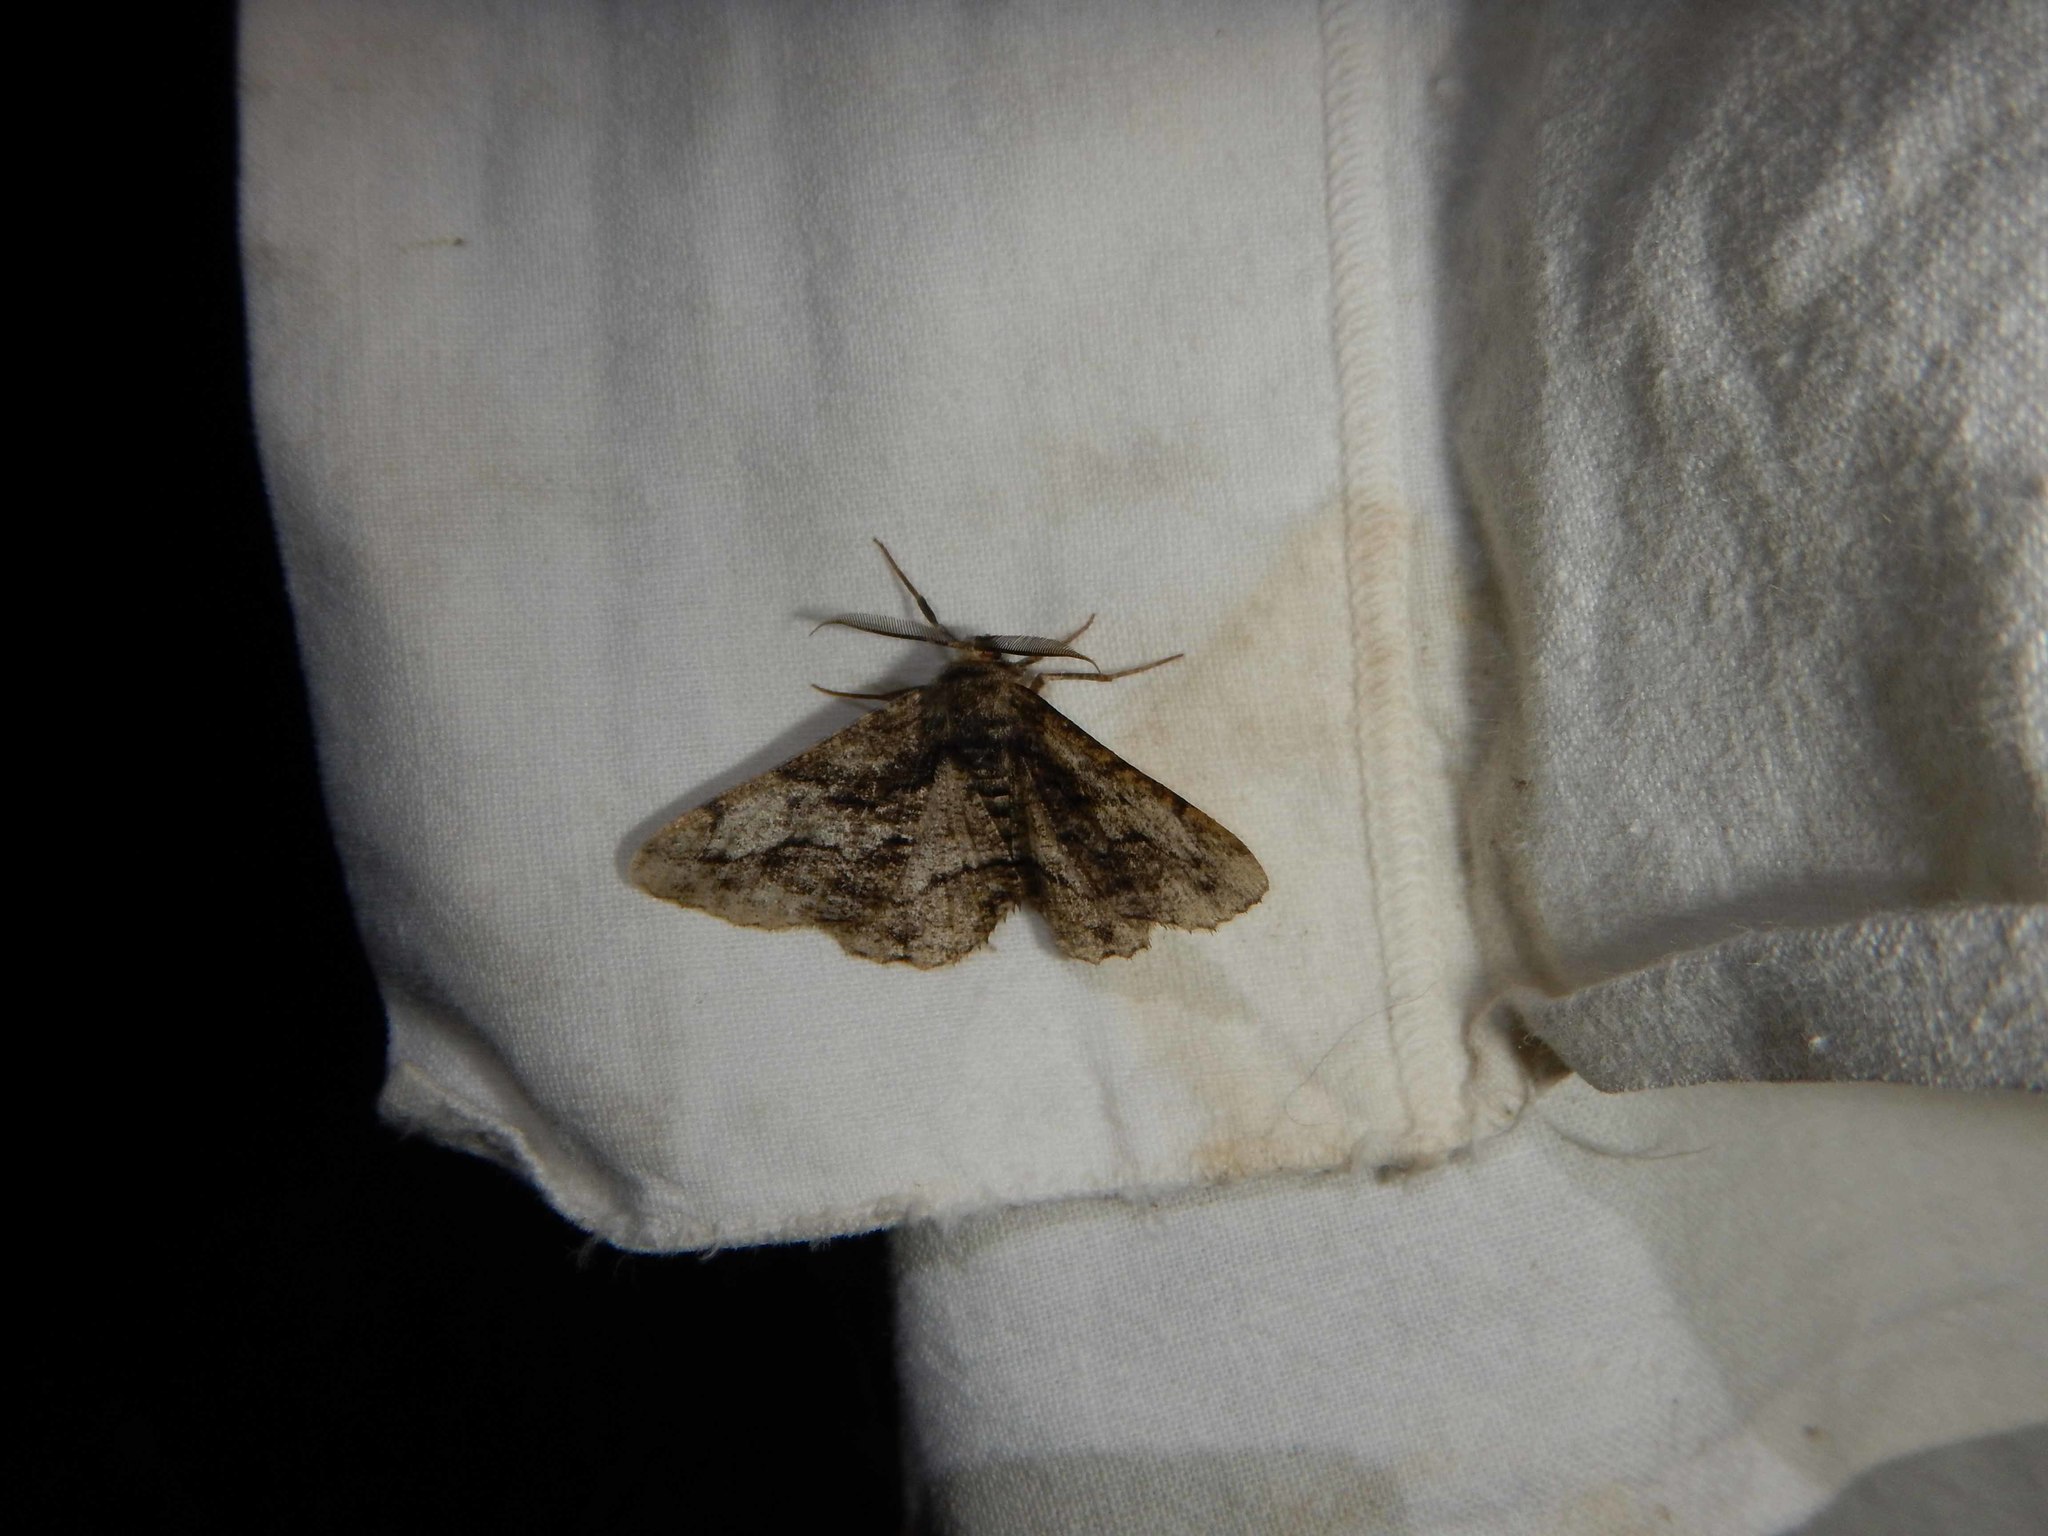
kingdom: Animalia
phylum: Arthropoda
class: Insecta
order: Lepidoptera
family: Geometridae
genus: Synopsia
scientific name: Synopsia sociaria
